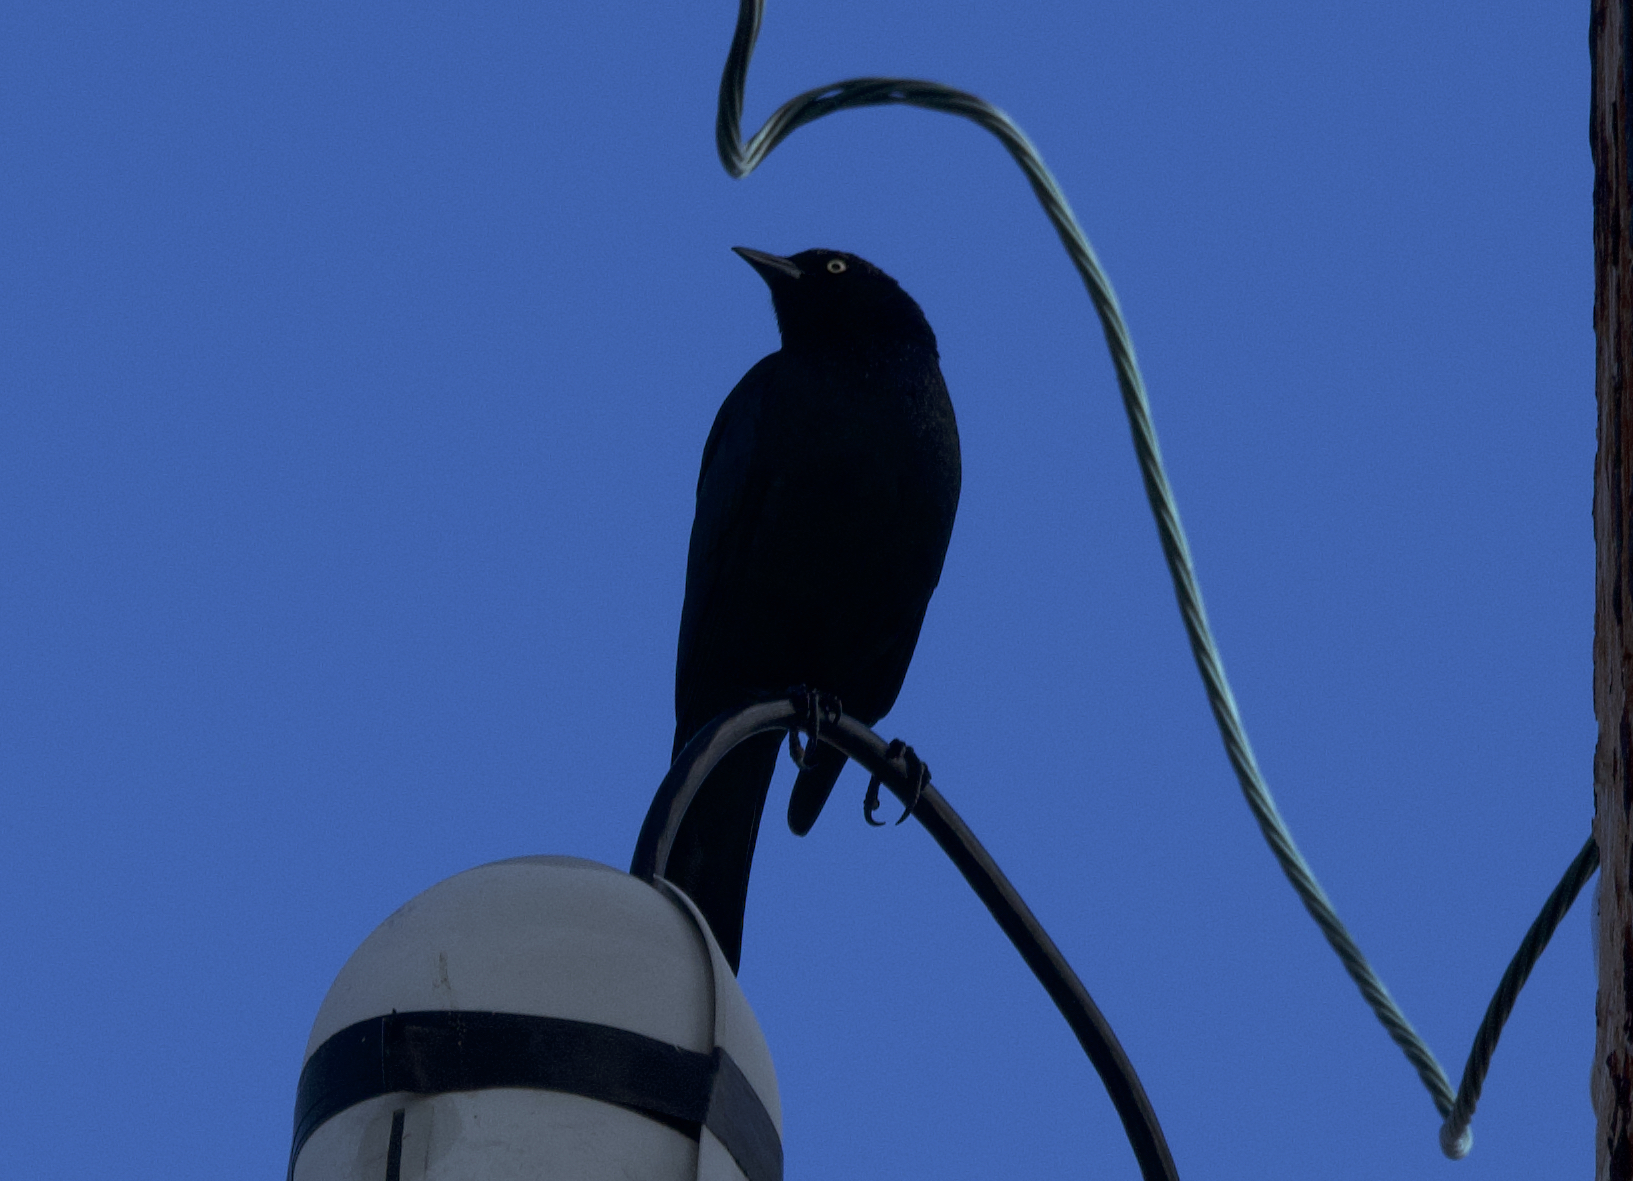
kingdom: Animalia
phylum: Chordata
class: Aves
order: Passeriformes
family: Icteridae
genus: Euphagus
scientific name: Euphagus cyanocephalus
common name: Brewer's blackbird
